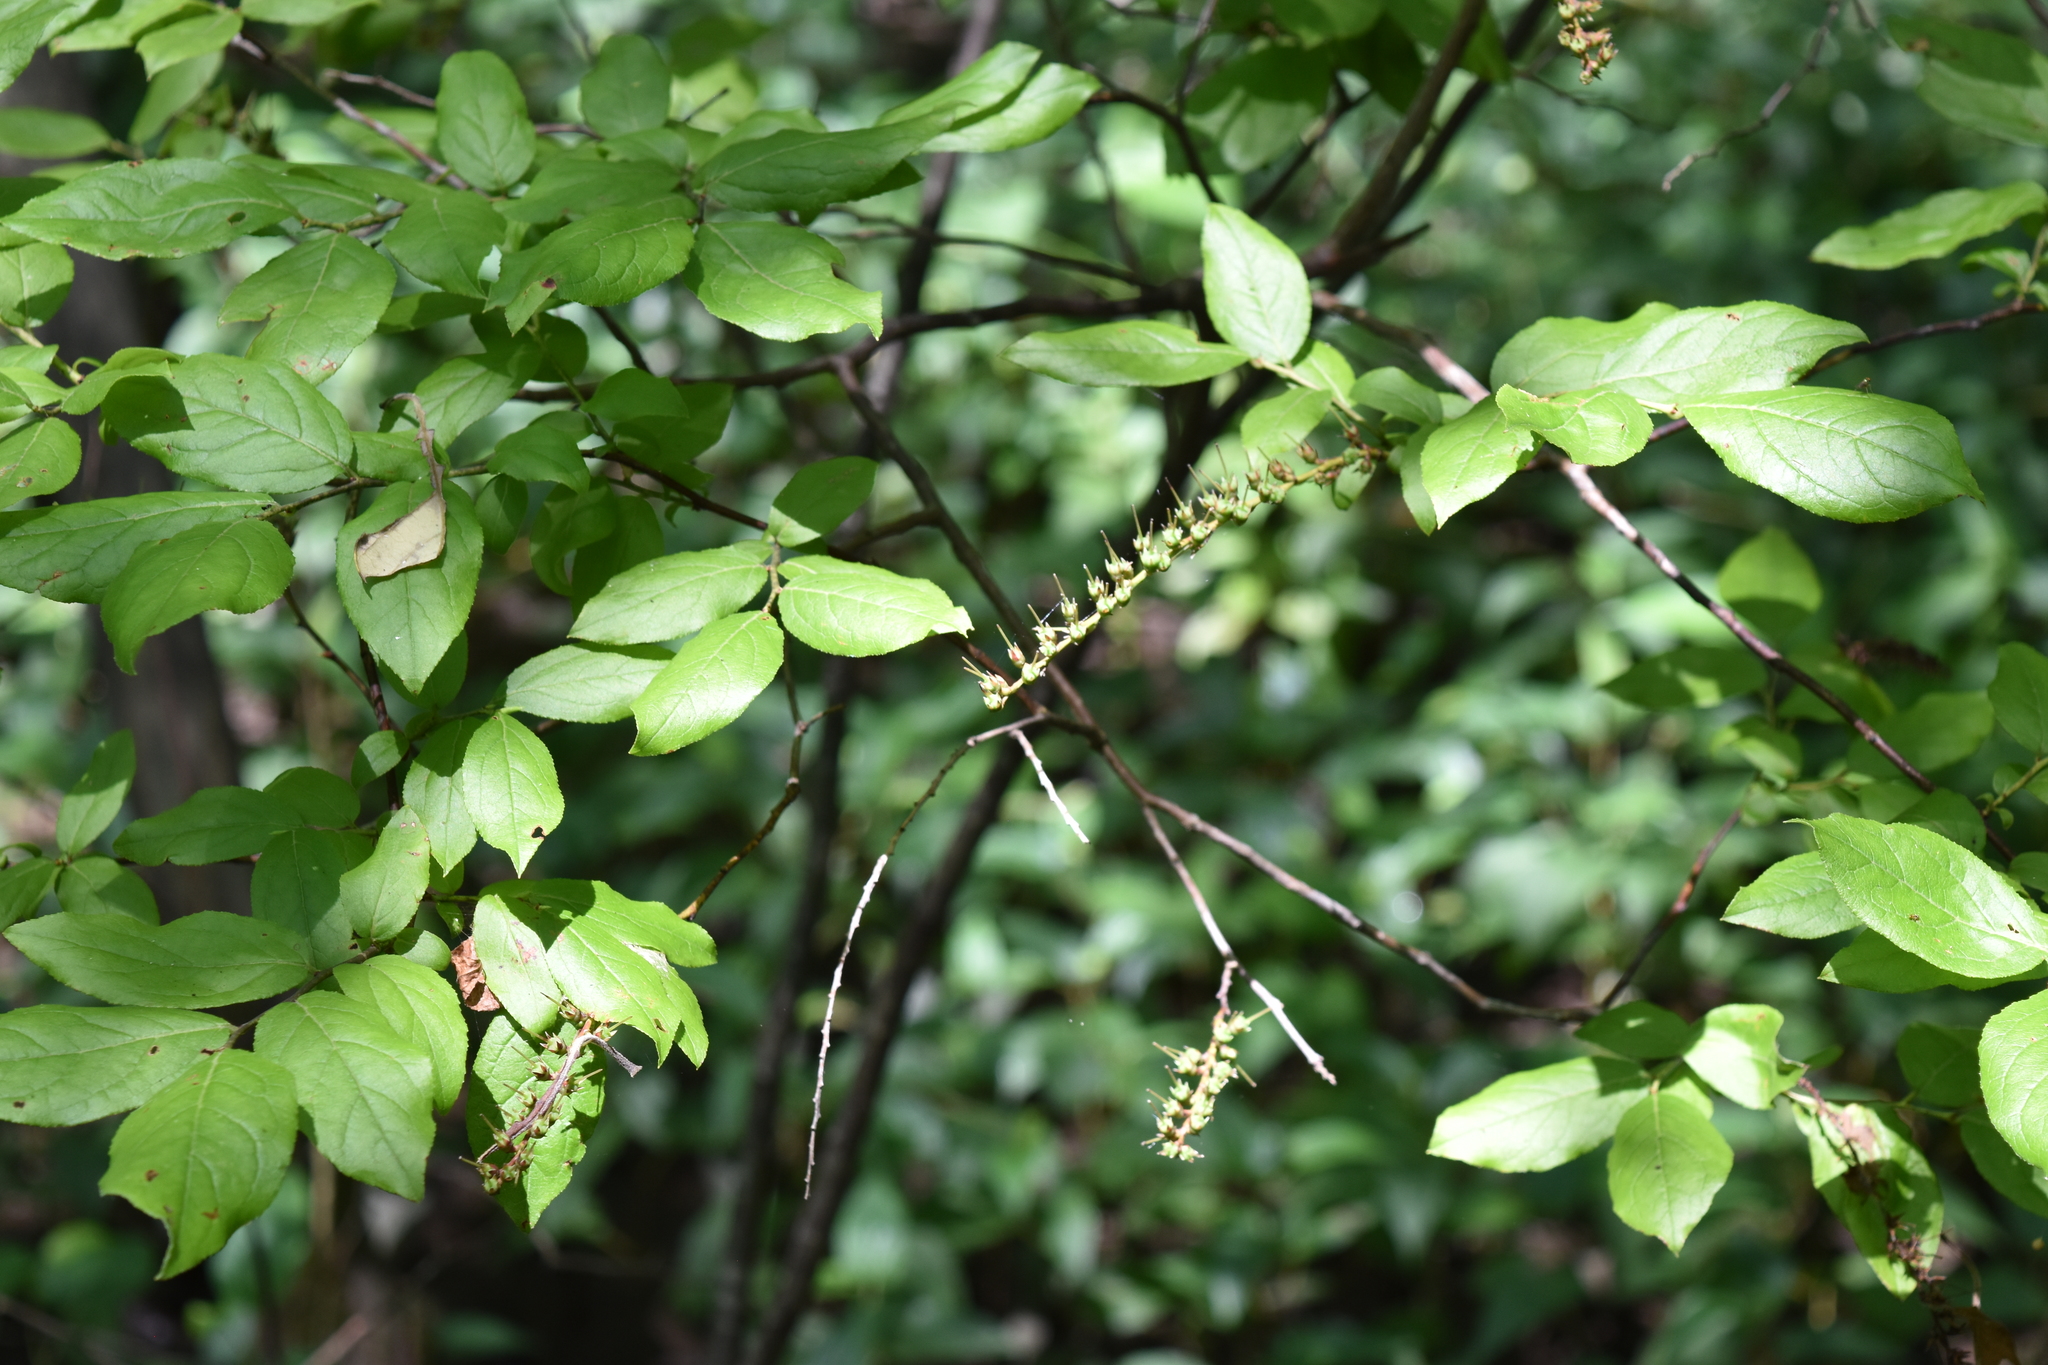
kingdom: Plantae
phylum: Tracheophyta
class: Magnoliopsida
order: Ericales
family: Ericaceae
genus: Eubotrys
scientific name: Eubotrys racemosa
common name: Fetterbush
